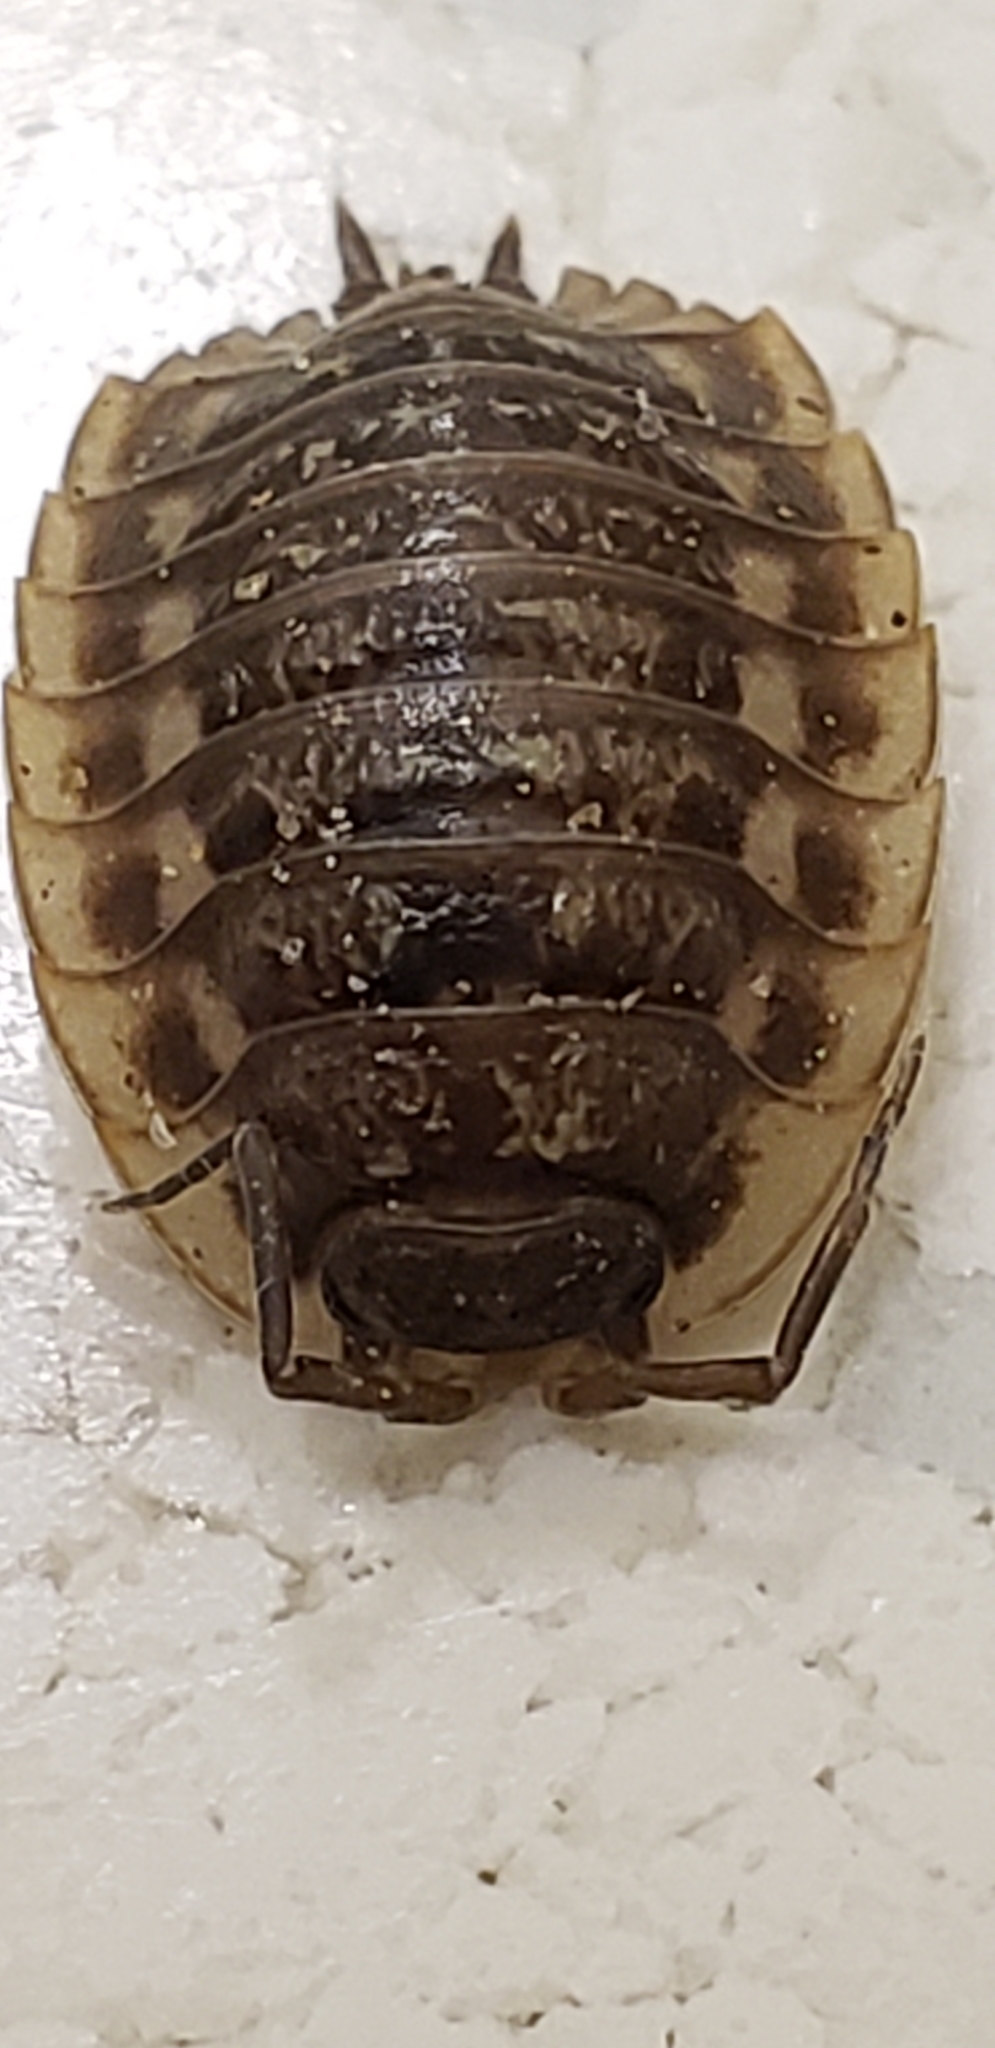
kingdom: Animalia
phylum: Arthropoda
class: Malacostraca
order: Isopoda
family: Oniscidae
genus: Oniscus
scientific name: Oniscus asellus
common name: Common shiny woodlouse
